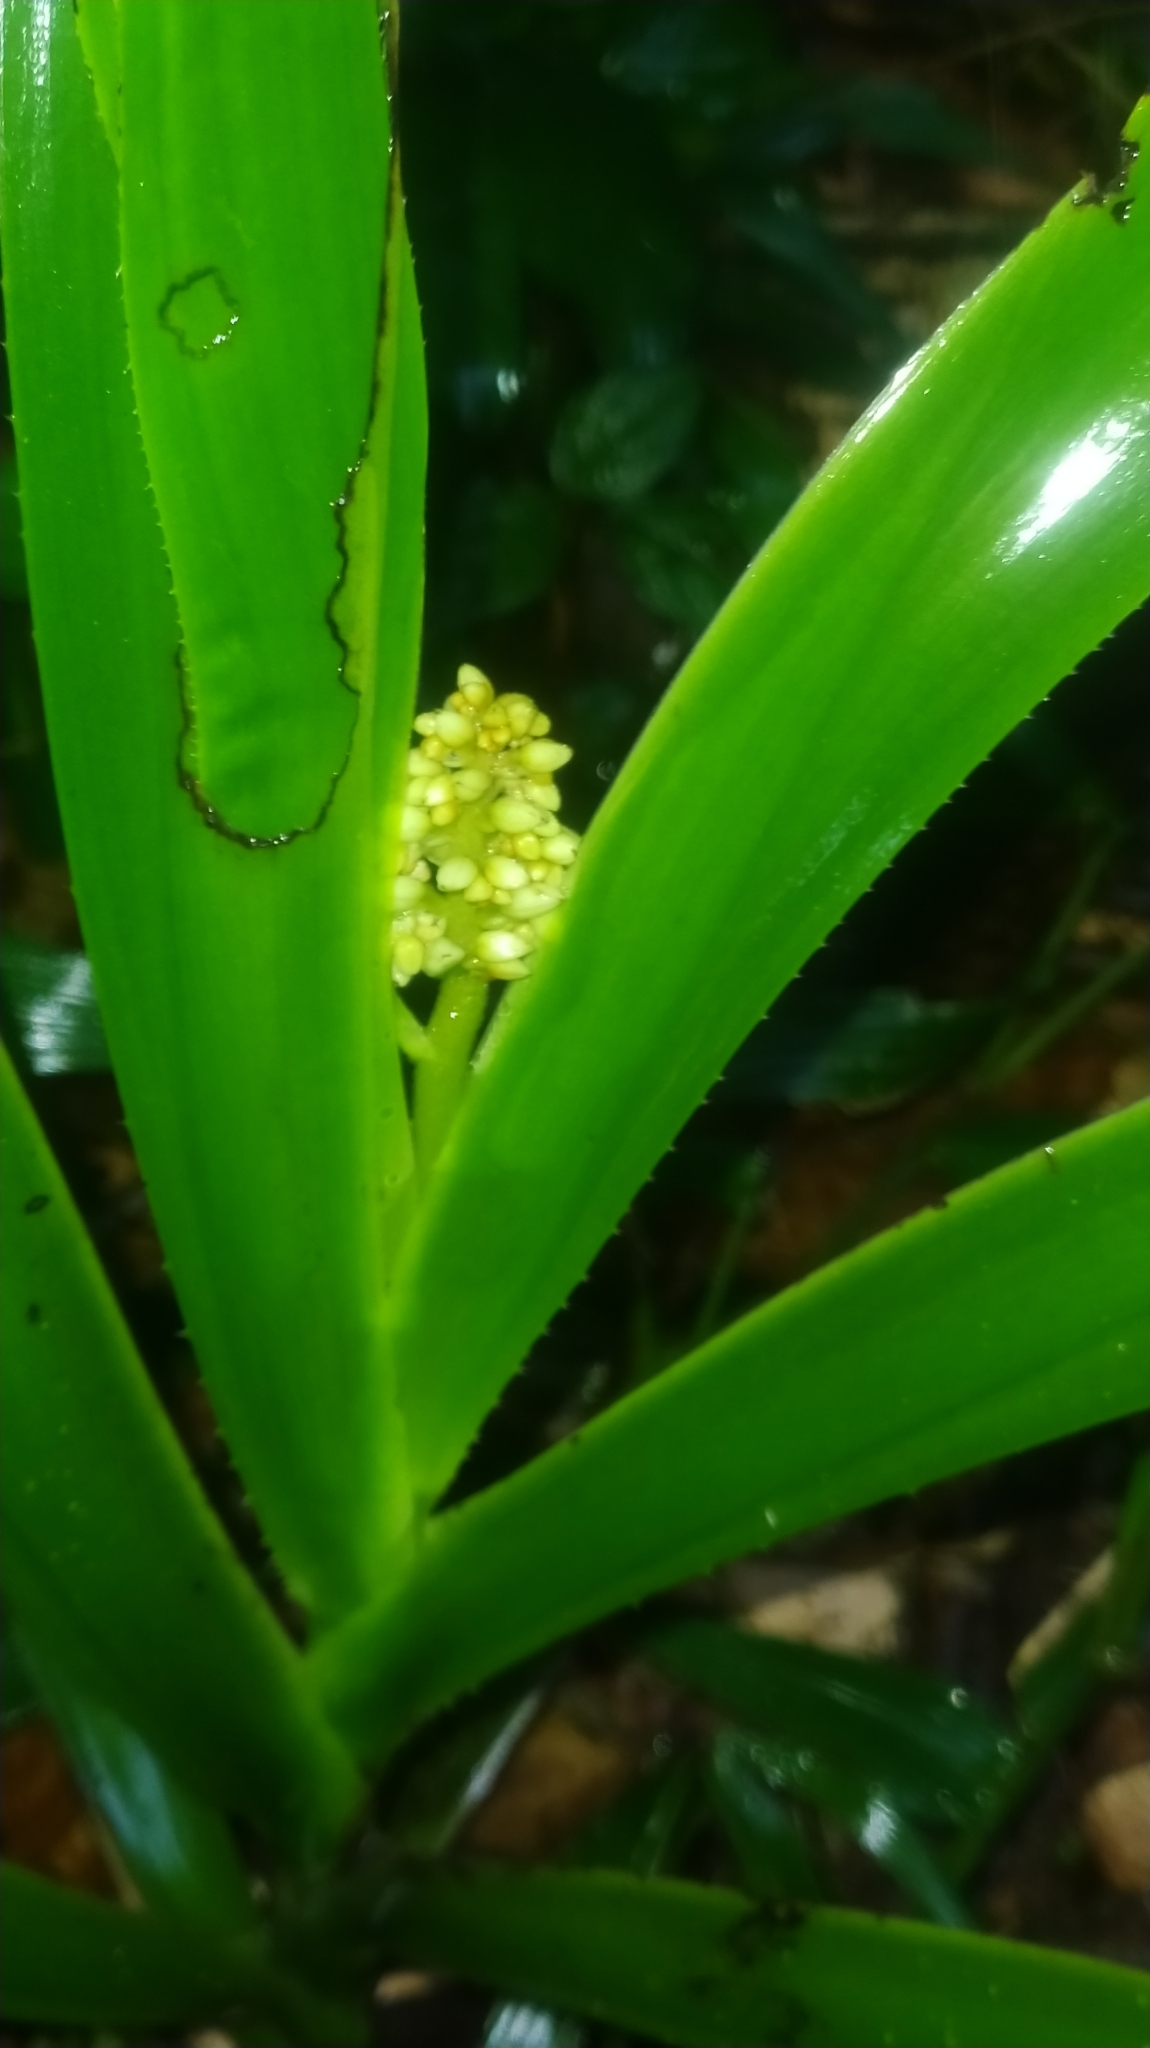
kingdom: Plantae
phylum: Tracheophyta
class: Liliopsida
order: Commelinales
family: Haemodoraceae
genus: Xiphidium
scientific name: Xiphidium caeruleum
